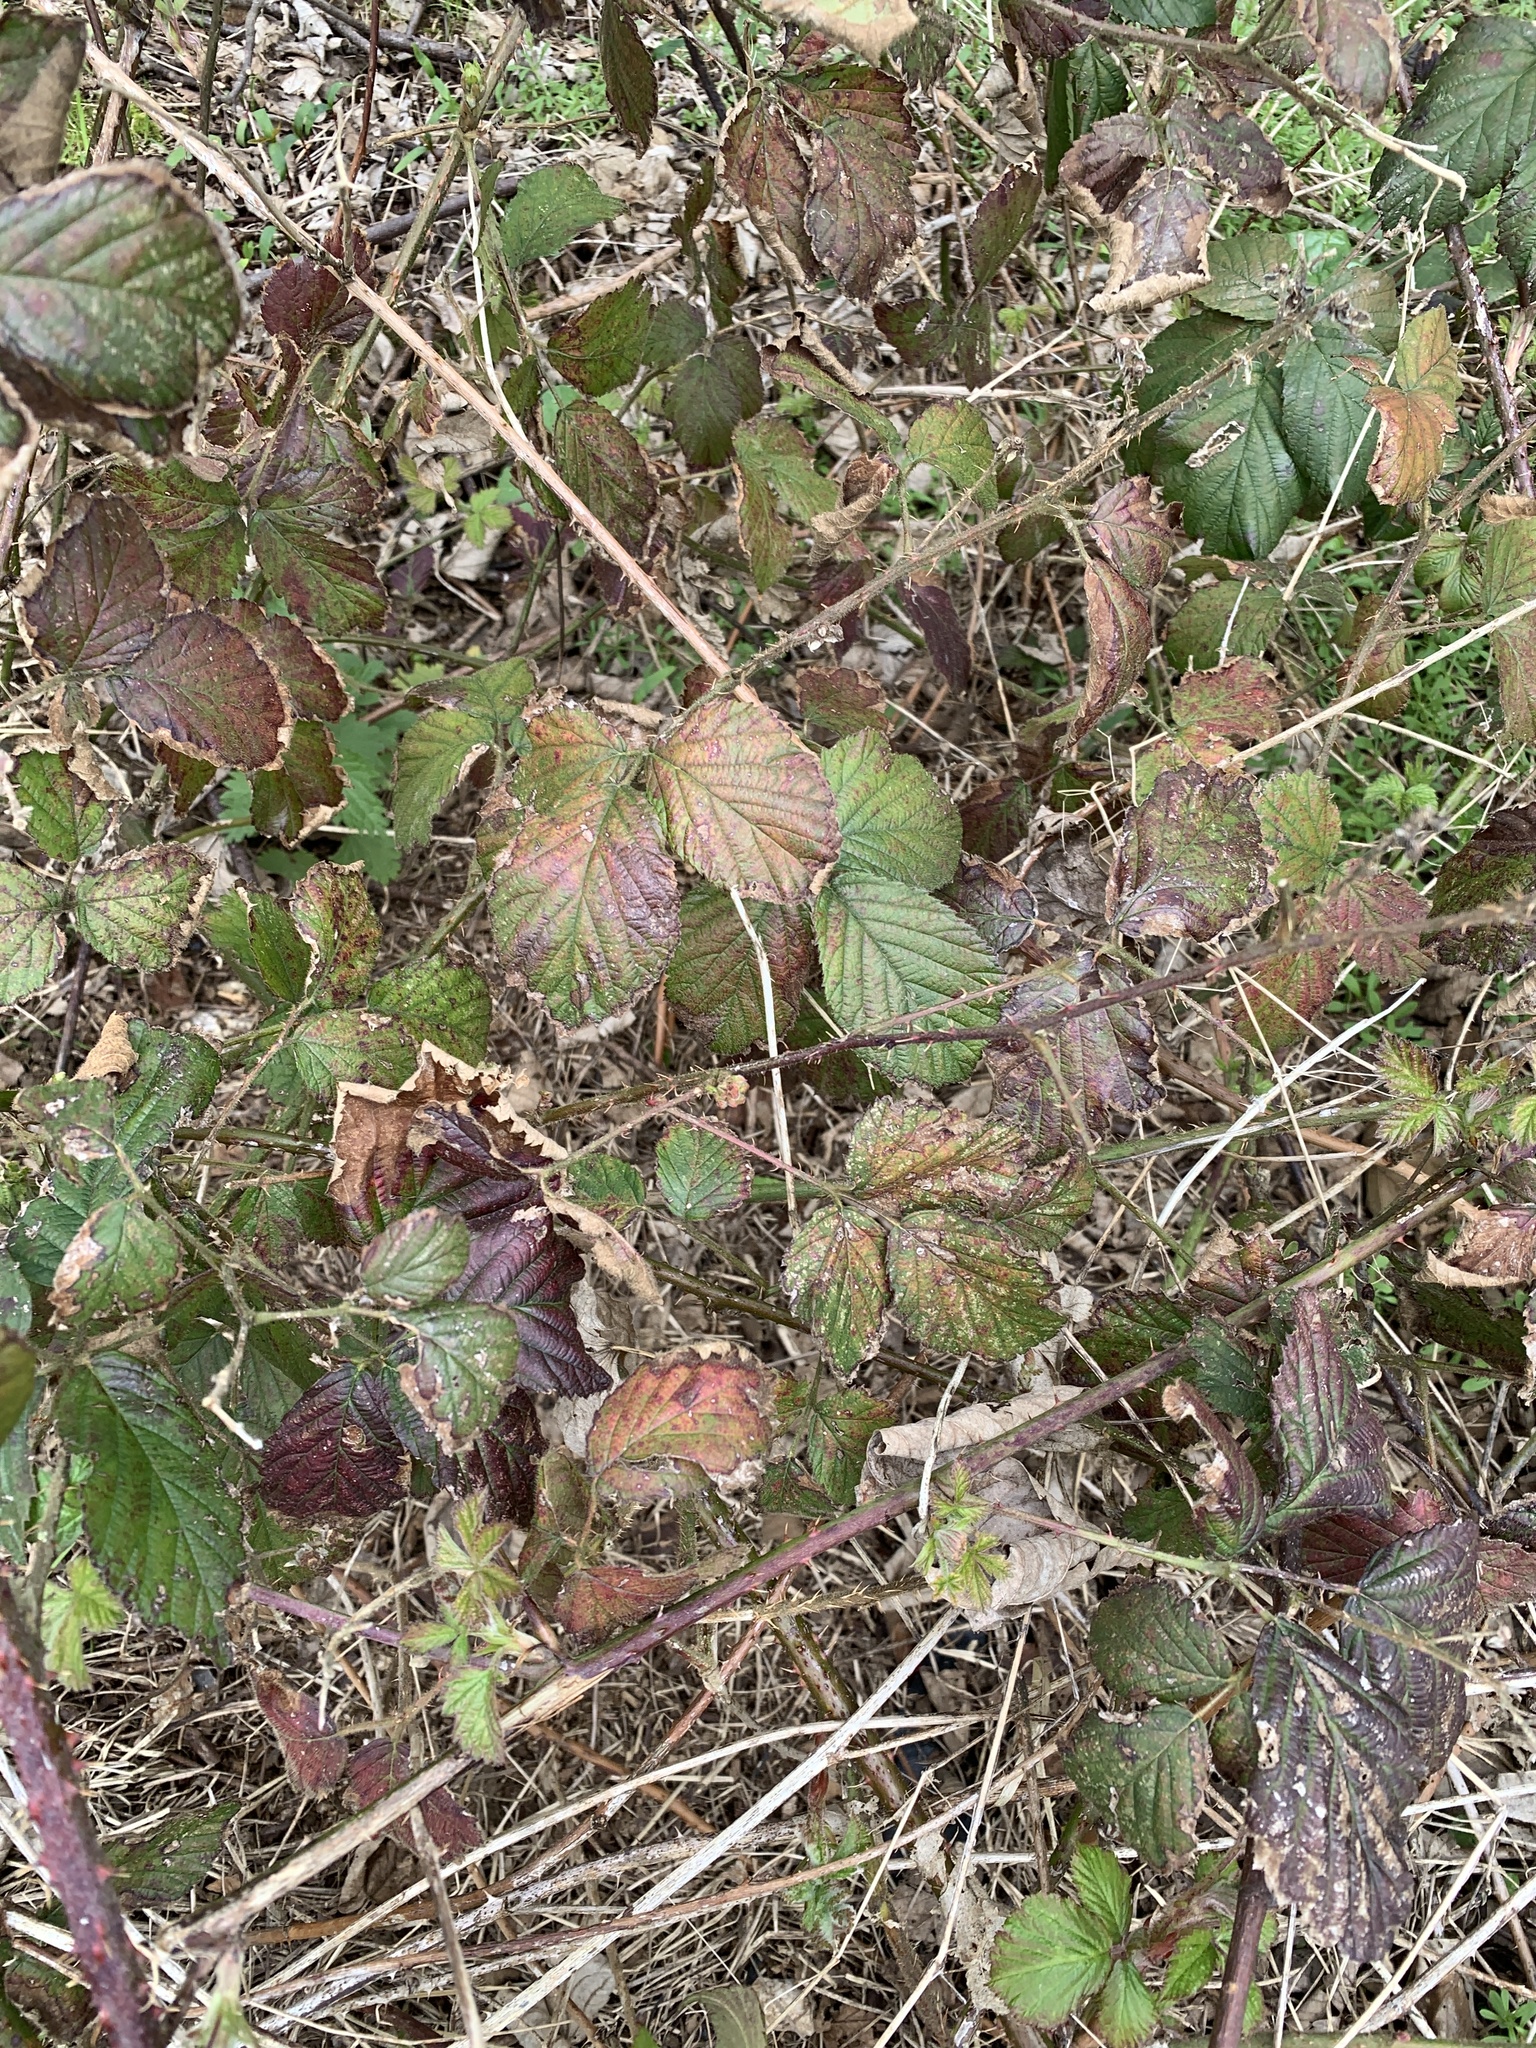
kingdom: Plantae
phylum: Tracheophyta
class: Magnoliopsida
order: Rosales
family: Rosaceae
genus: Rubus
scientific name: Rubus fruticosus
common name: Blackberry, bramble
